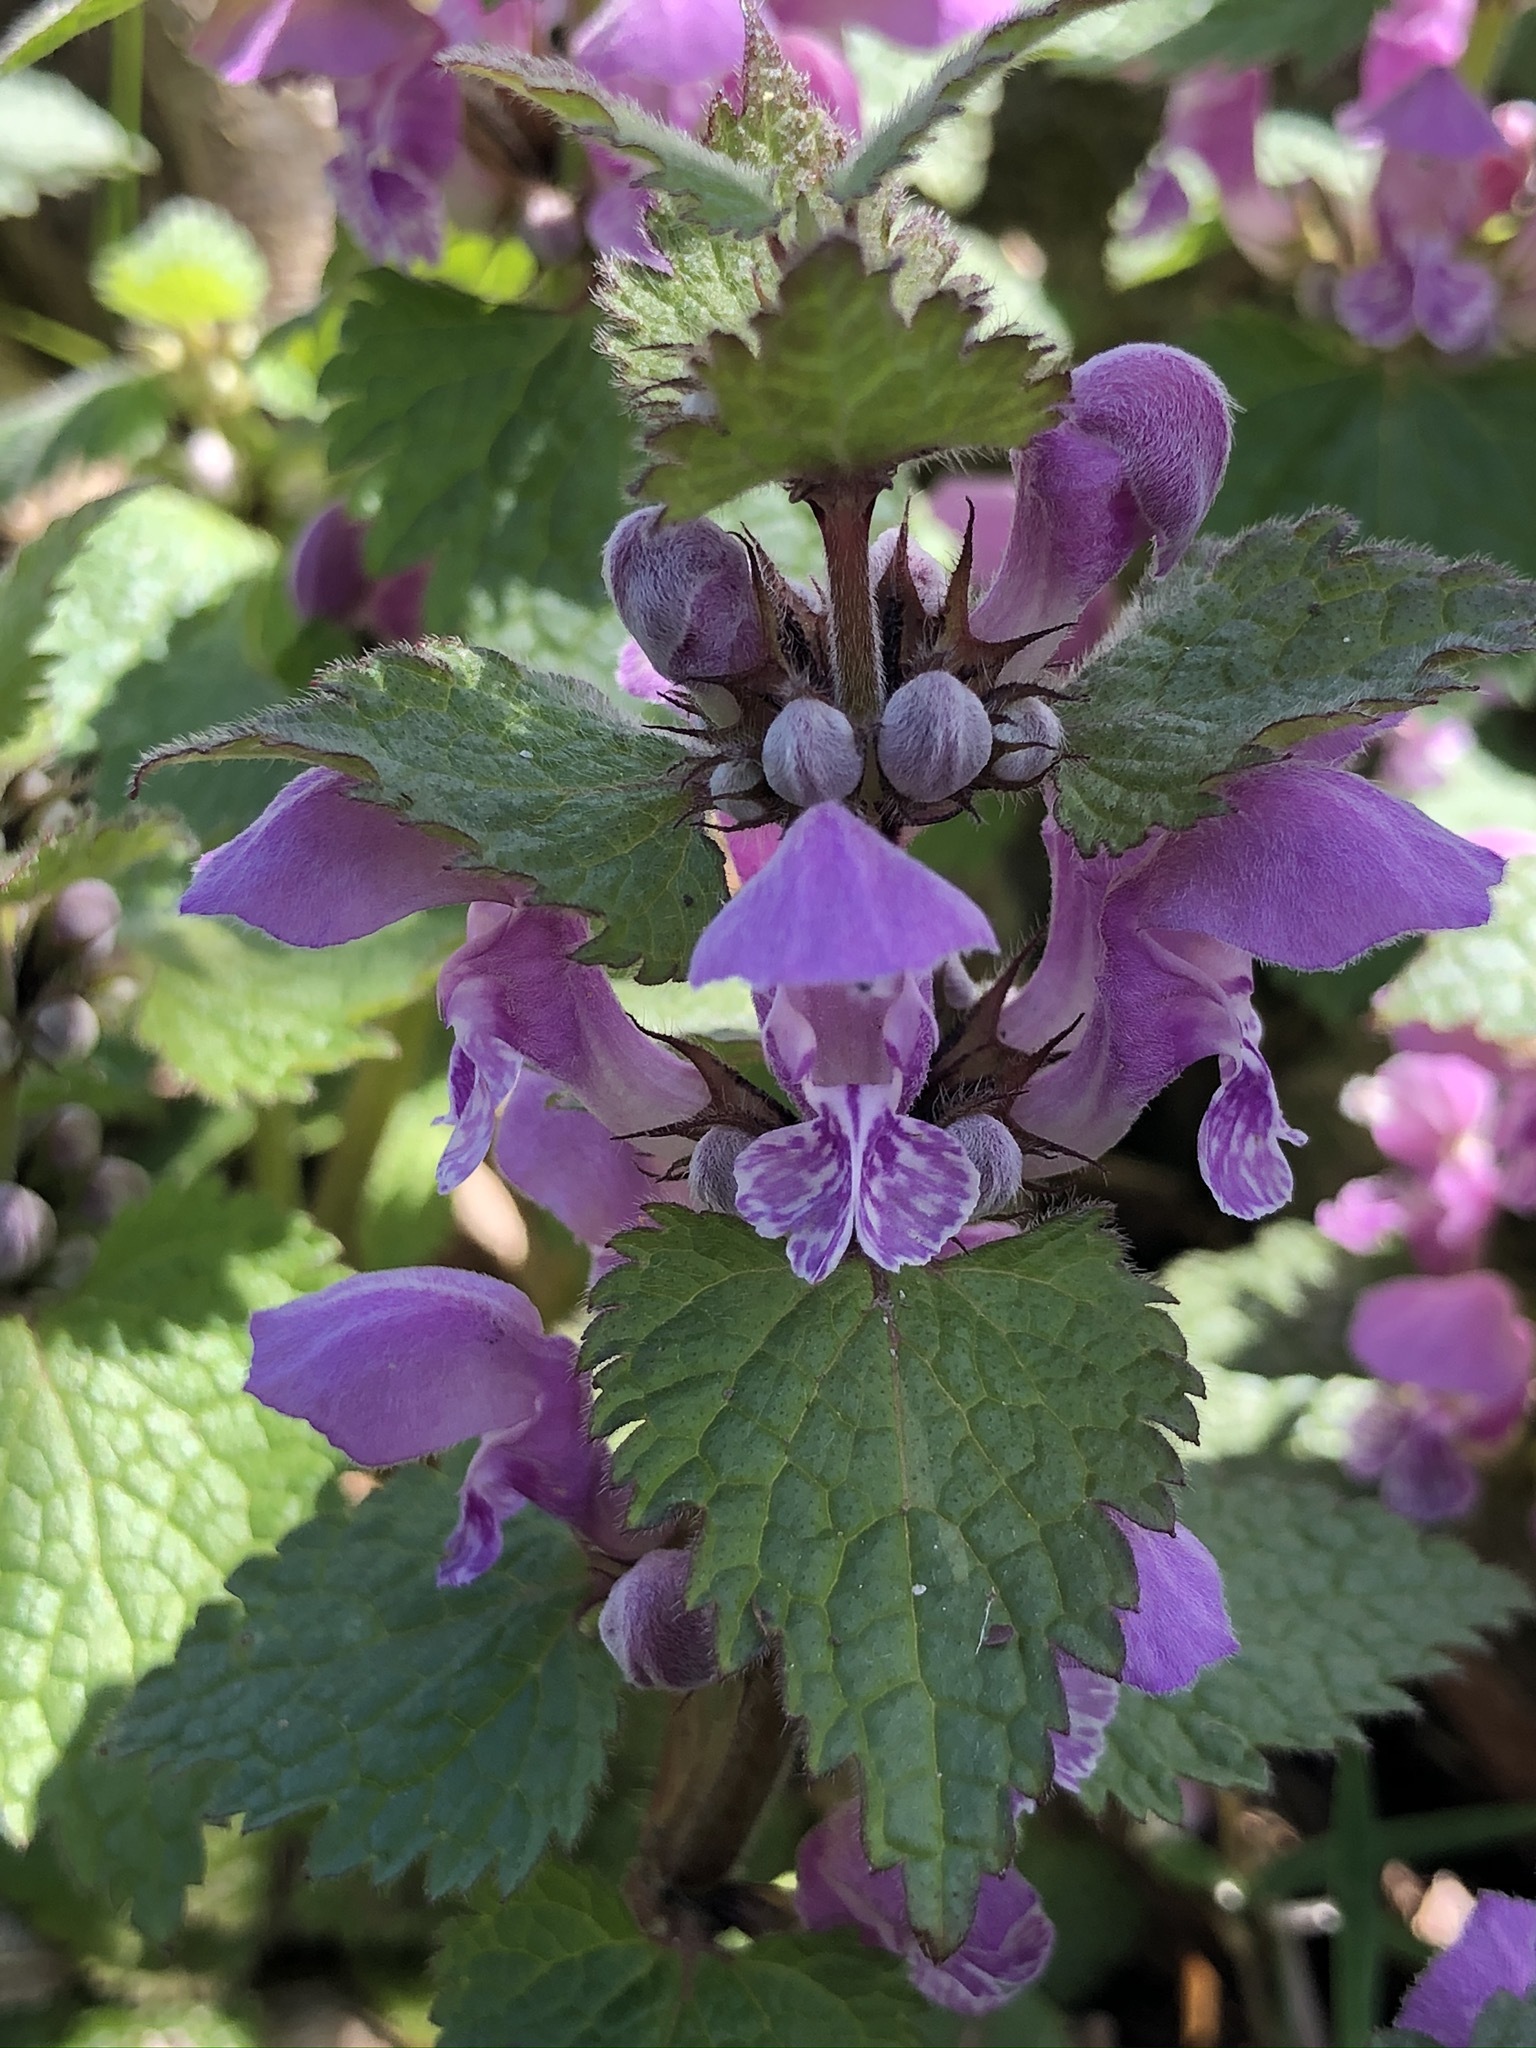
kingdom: Plantae
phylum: Tracheophyta
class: Magnoliopsida
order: Lamiales
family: Lamiaceae
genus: Lamium
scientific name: Lamium maculatum
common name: Spotted dead-nettle
